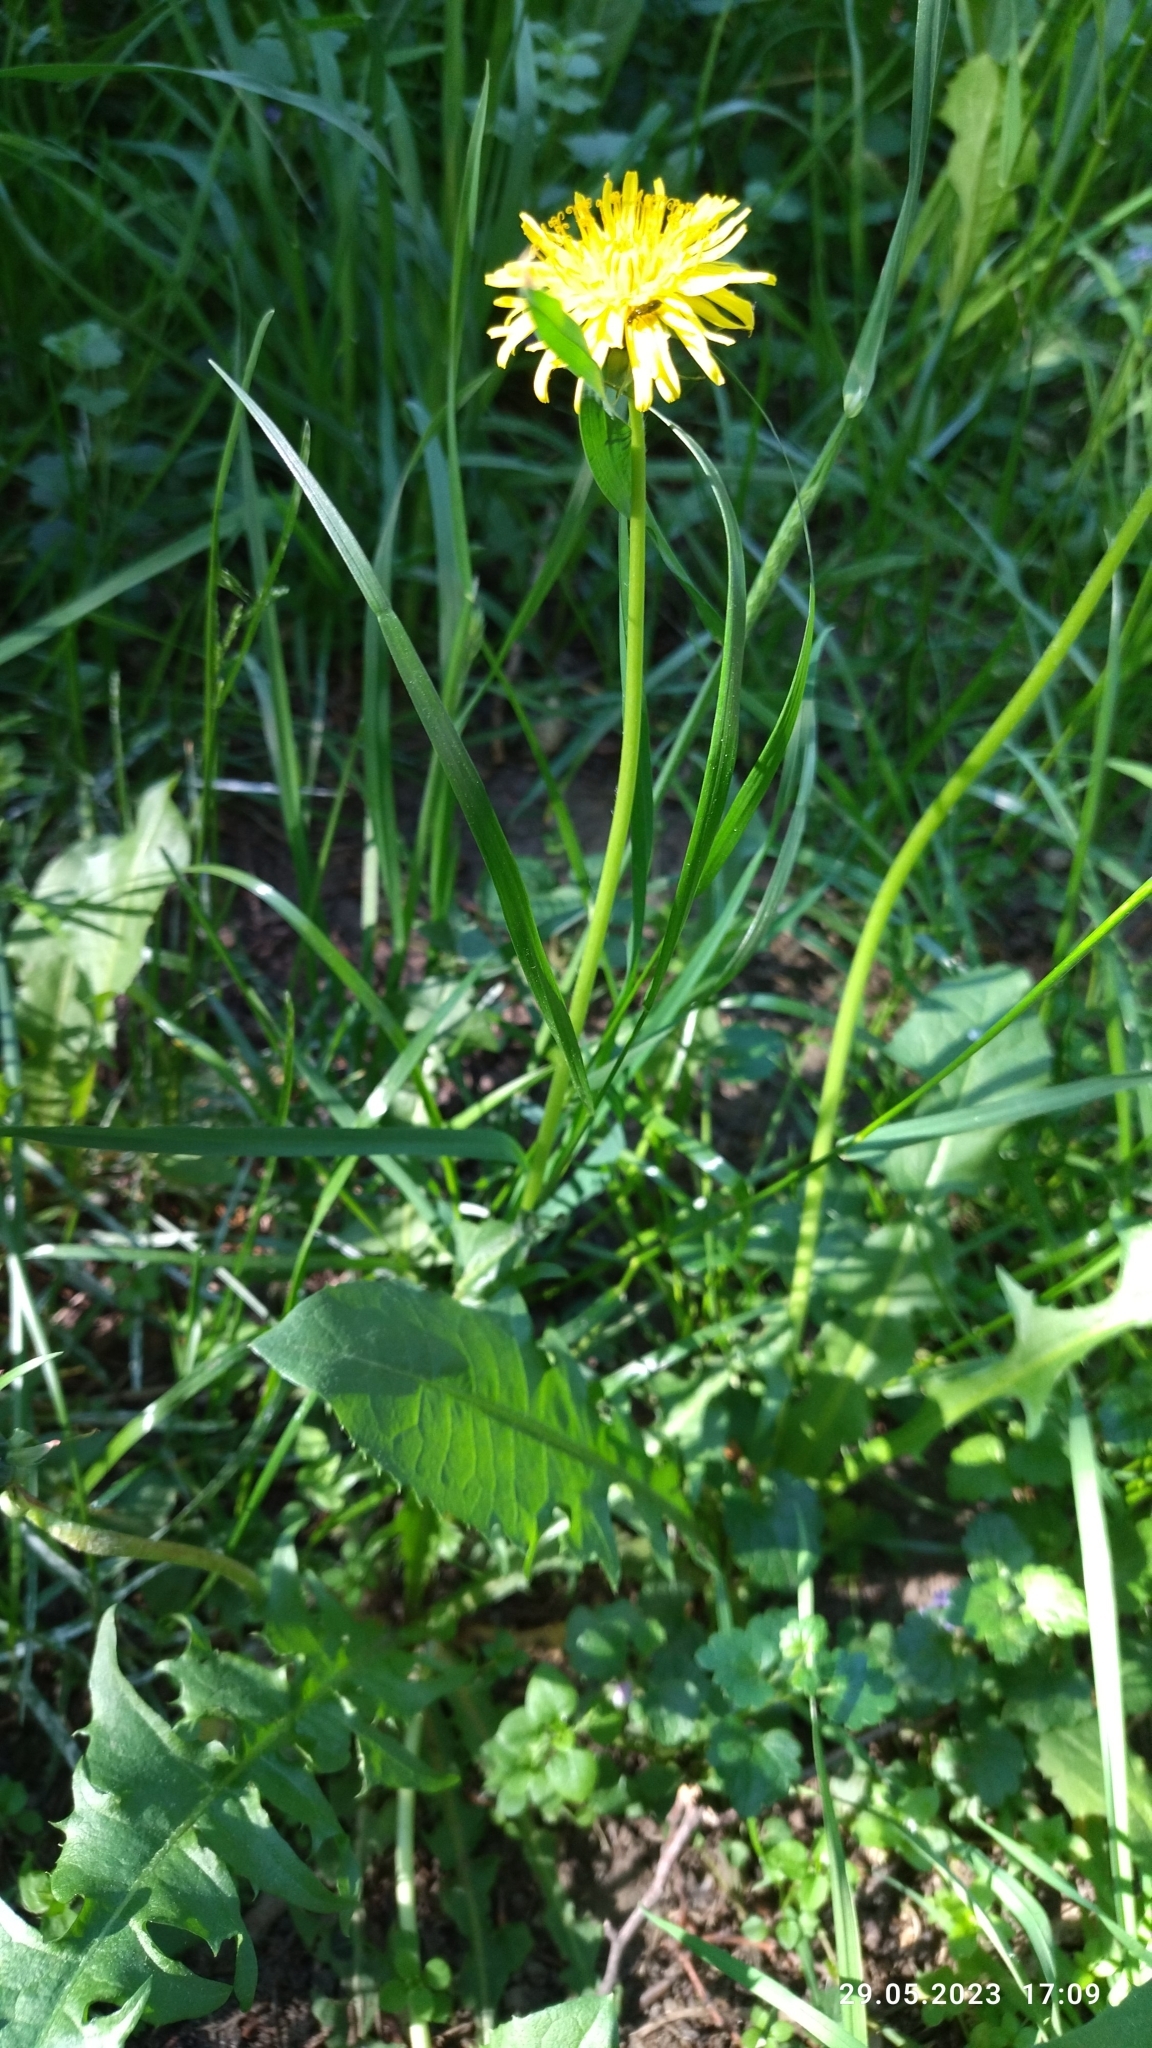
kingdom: Plantae
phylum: Tracheophyta
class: Magnoliopsida
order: Asterales
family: Asteraceae
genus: Taraxacum
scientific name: Taraxacum officinale
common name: Common dandelion
